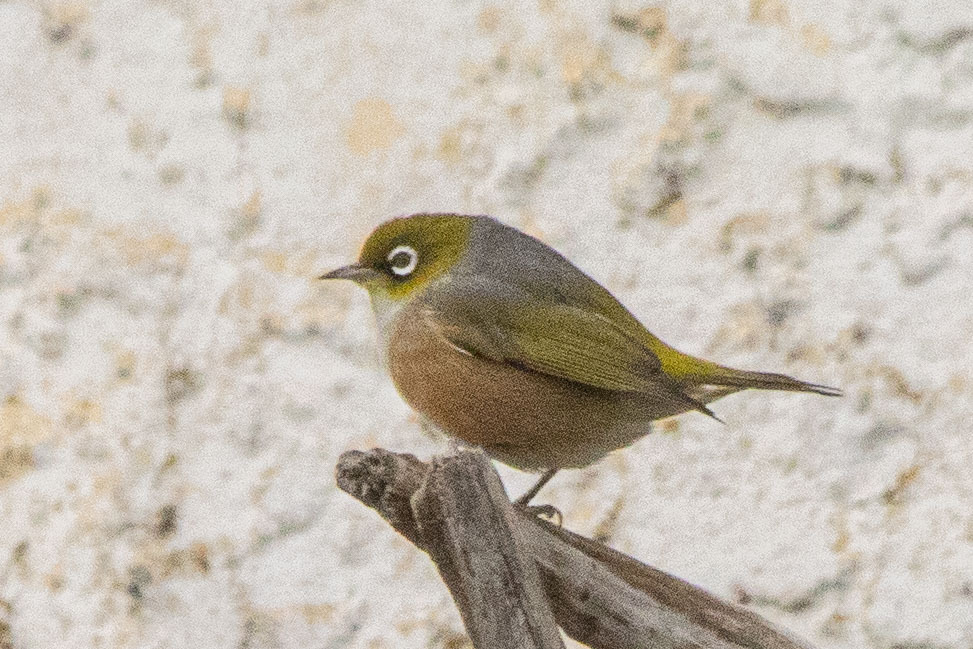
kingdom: Animalia
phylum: Chordata
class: Aves
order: Passeriformes
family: Zosteropidae
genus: Zosterops
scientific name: Zosterops lateralis
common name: Silvereye
